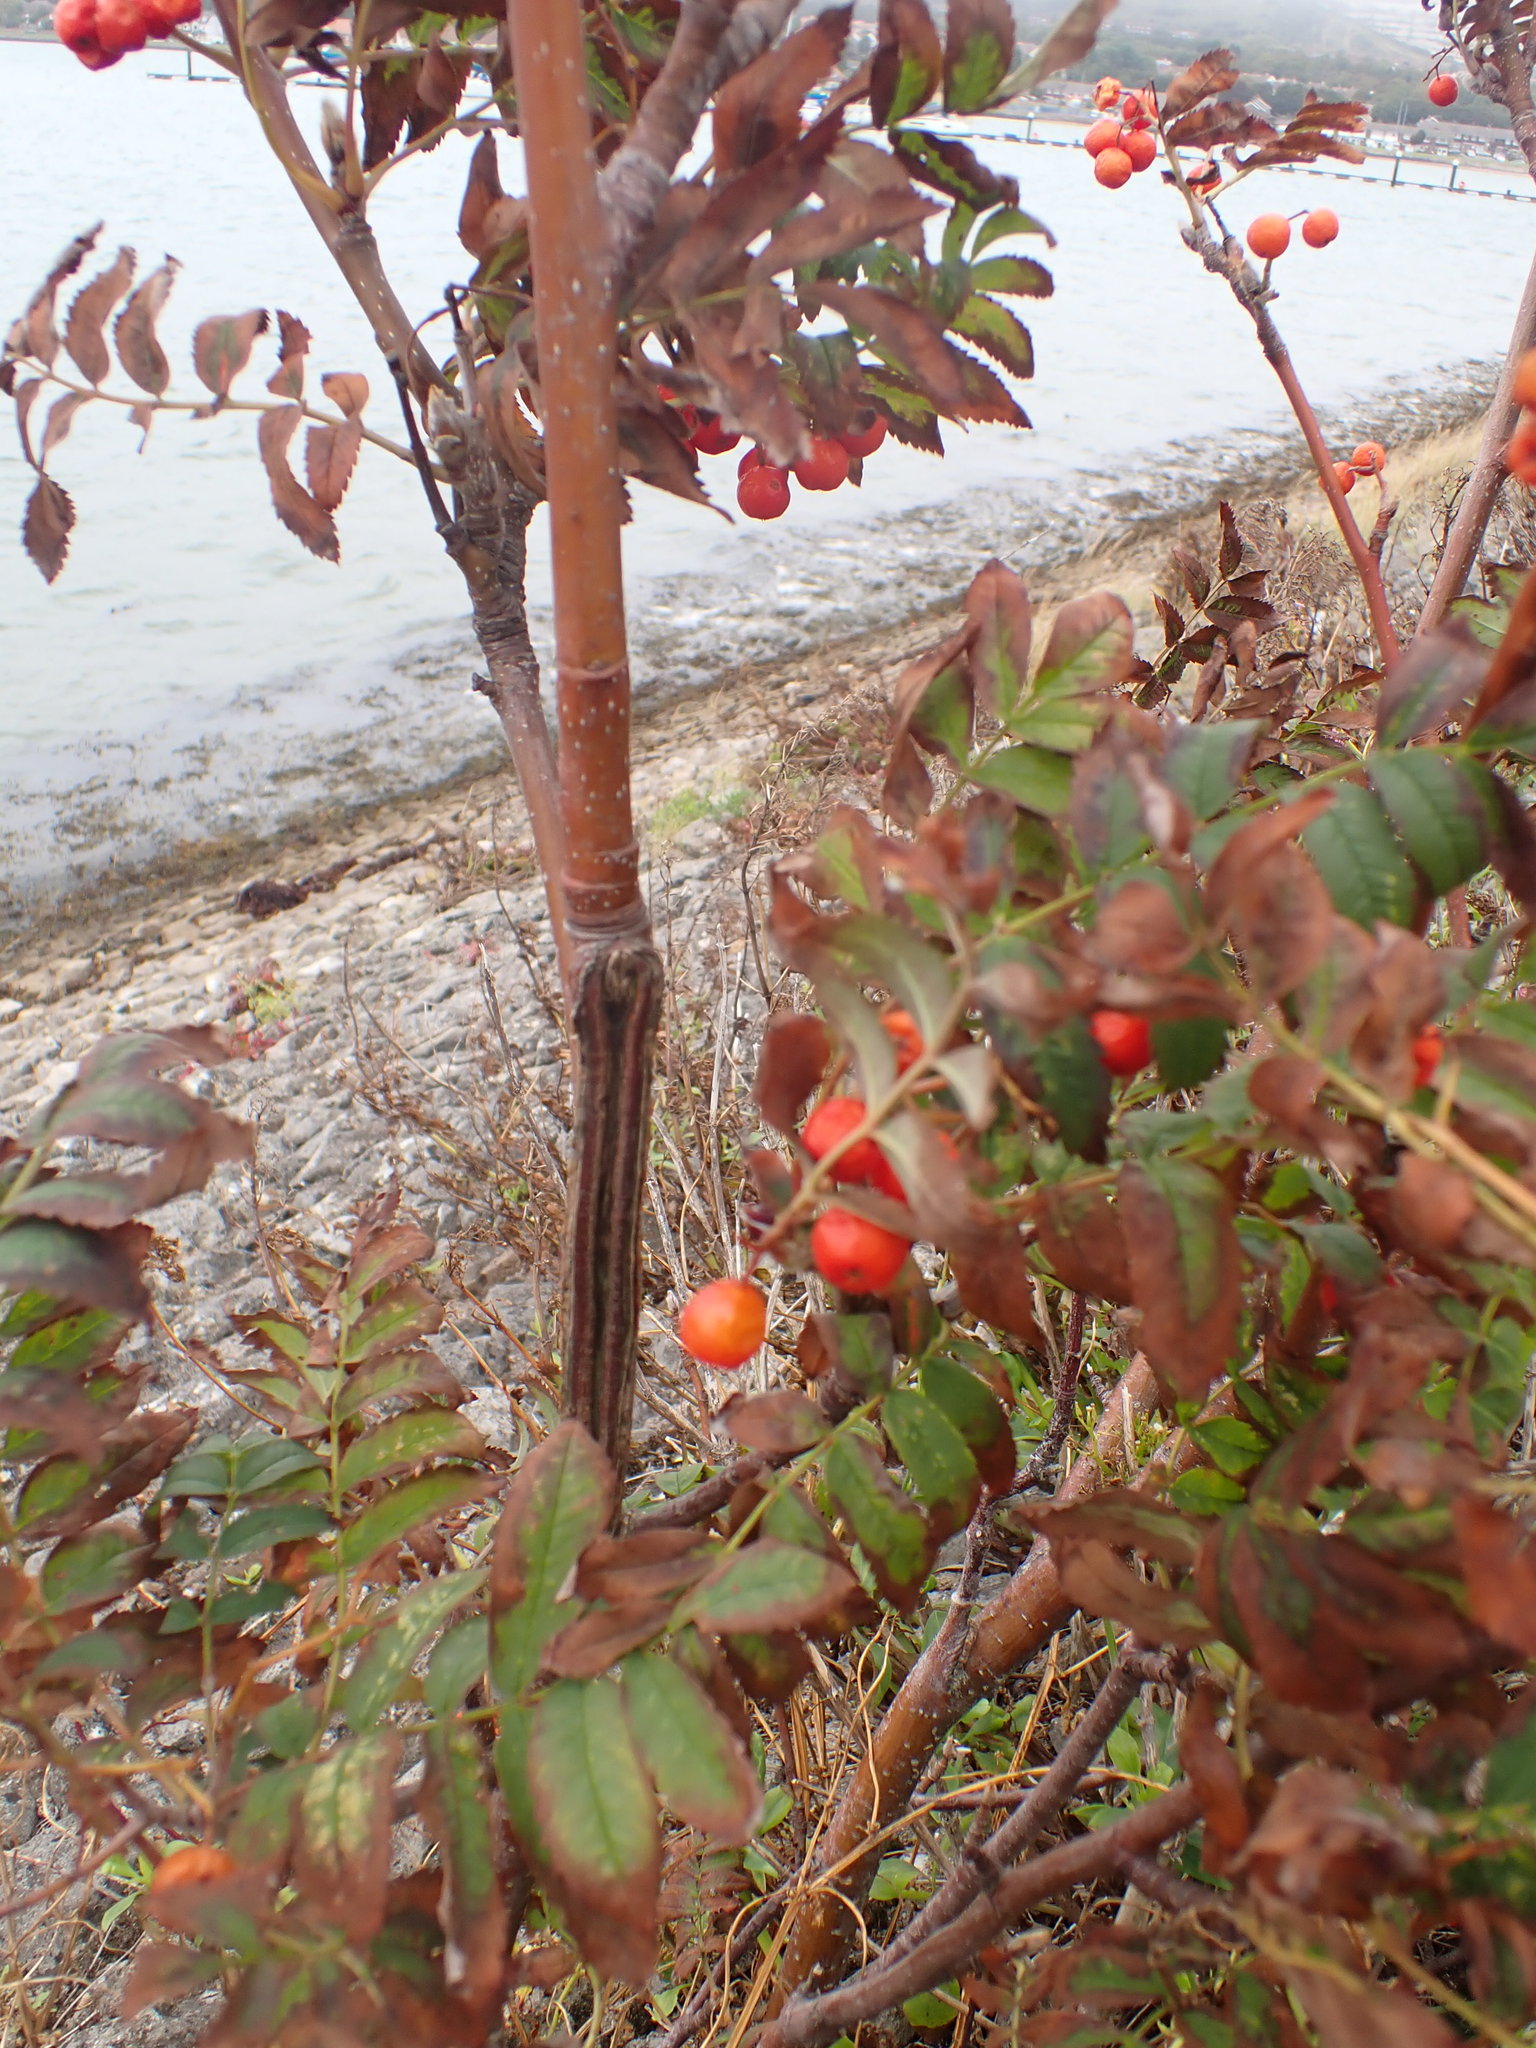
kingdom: Plantae
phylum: Tracheophyta
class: Magnoliopsida
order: Rosales
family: Rosaceae
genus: Sorbus
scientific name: Sorbus aucuparia
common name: Rowan
